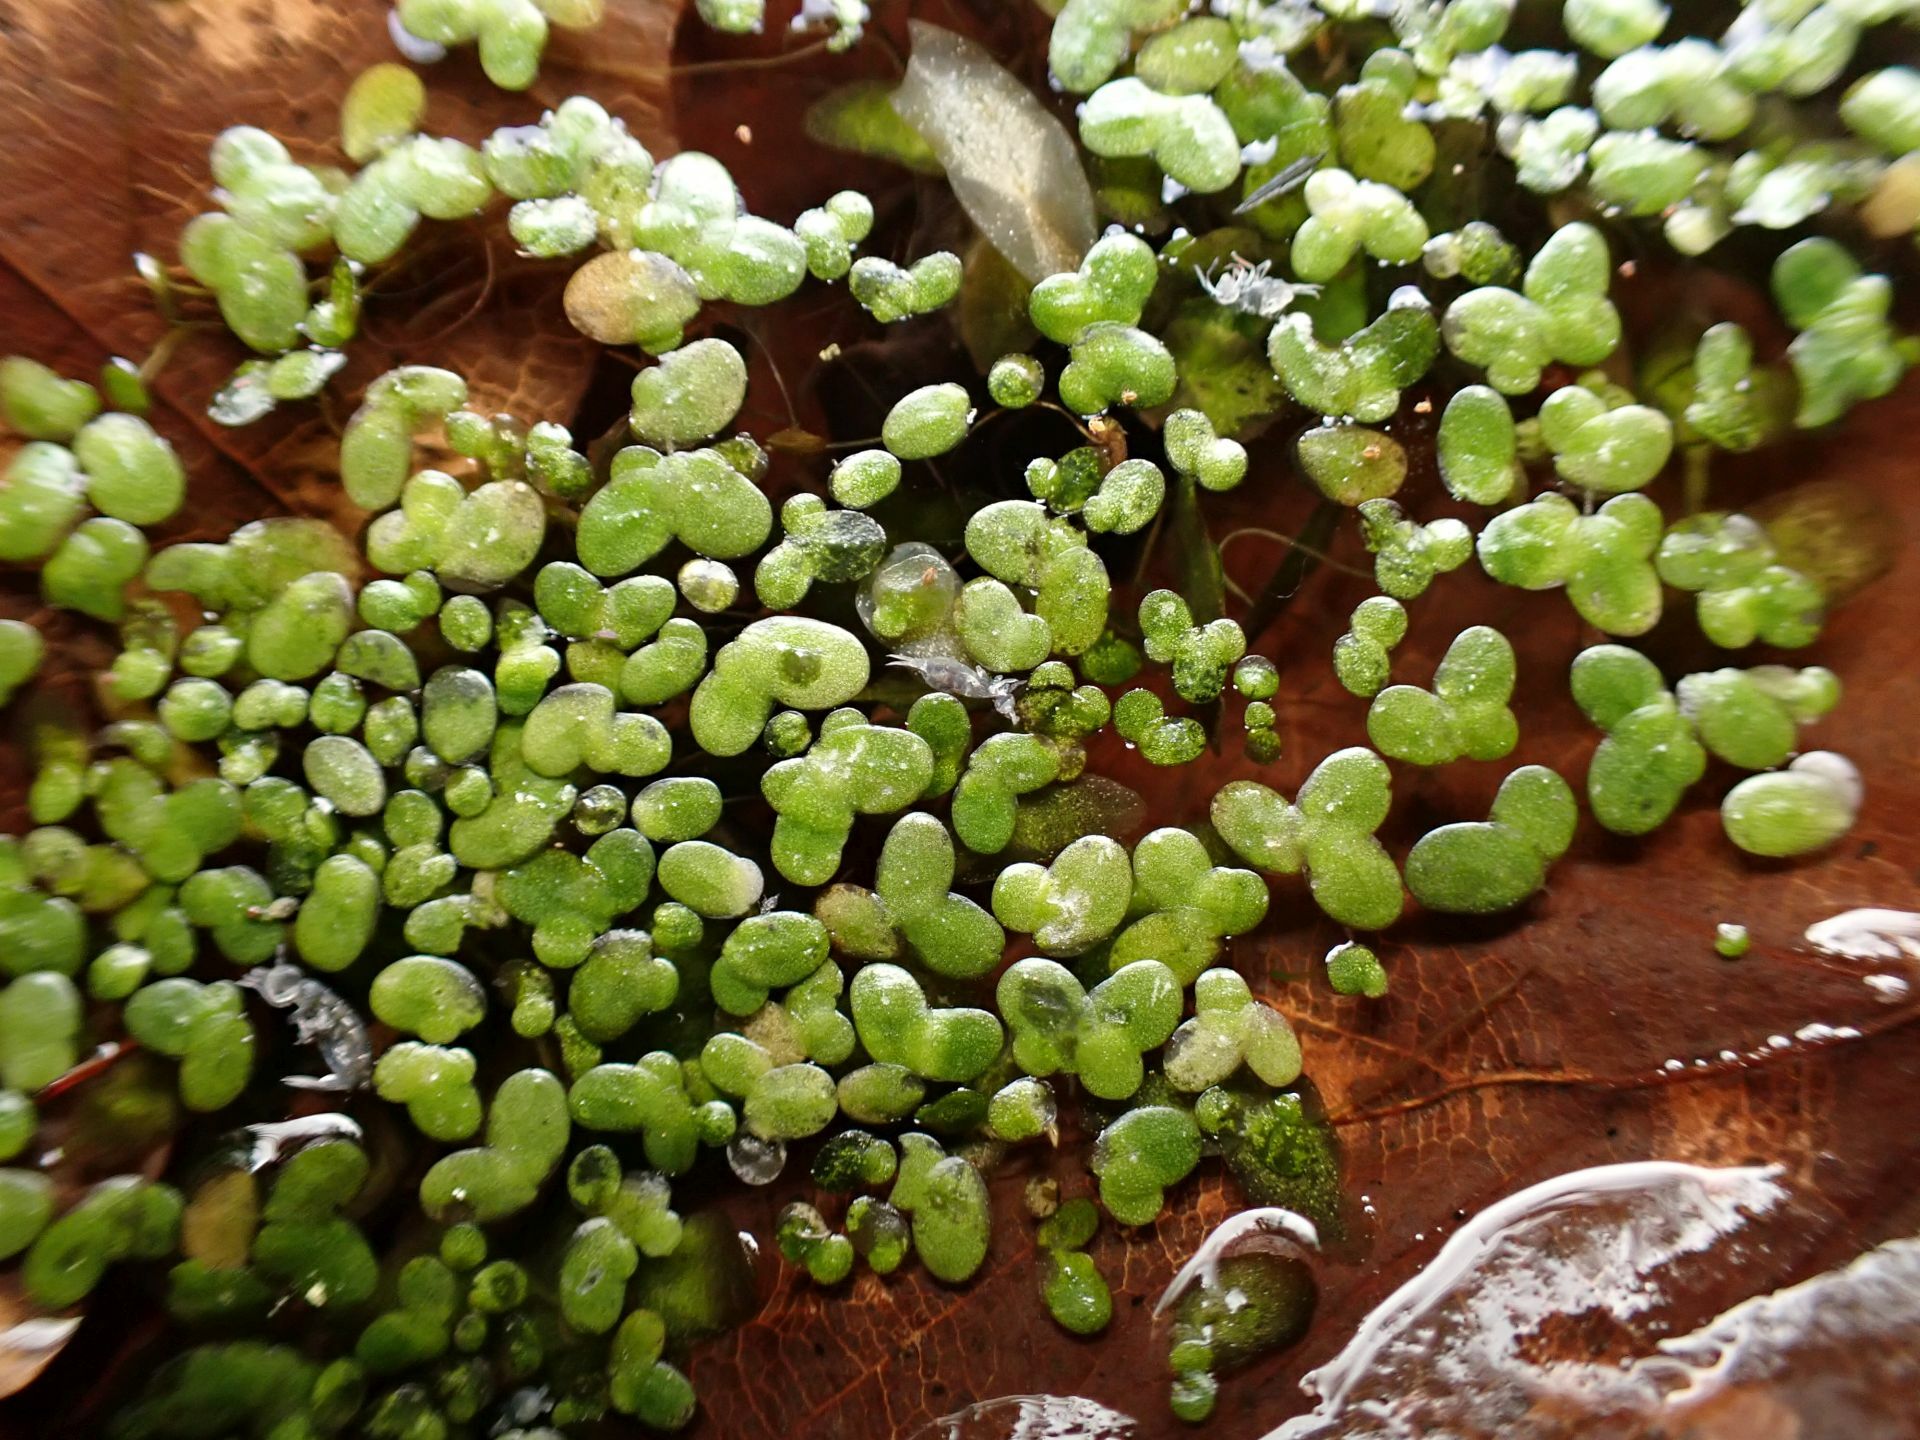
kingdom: Plantae
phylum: Tracheophyta
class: Liliopsida
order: Alismatales
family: Araceae
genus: Lemna
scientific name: Lemna minor
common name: Common duckweed
